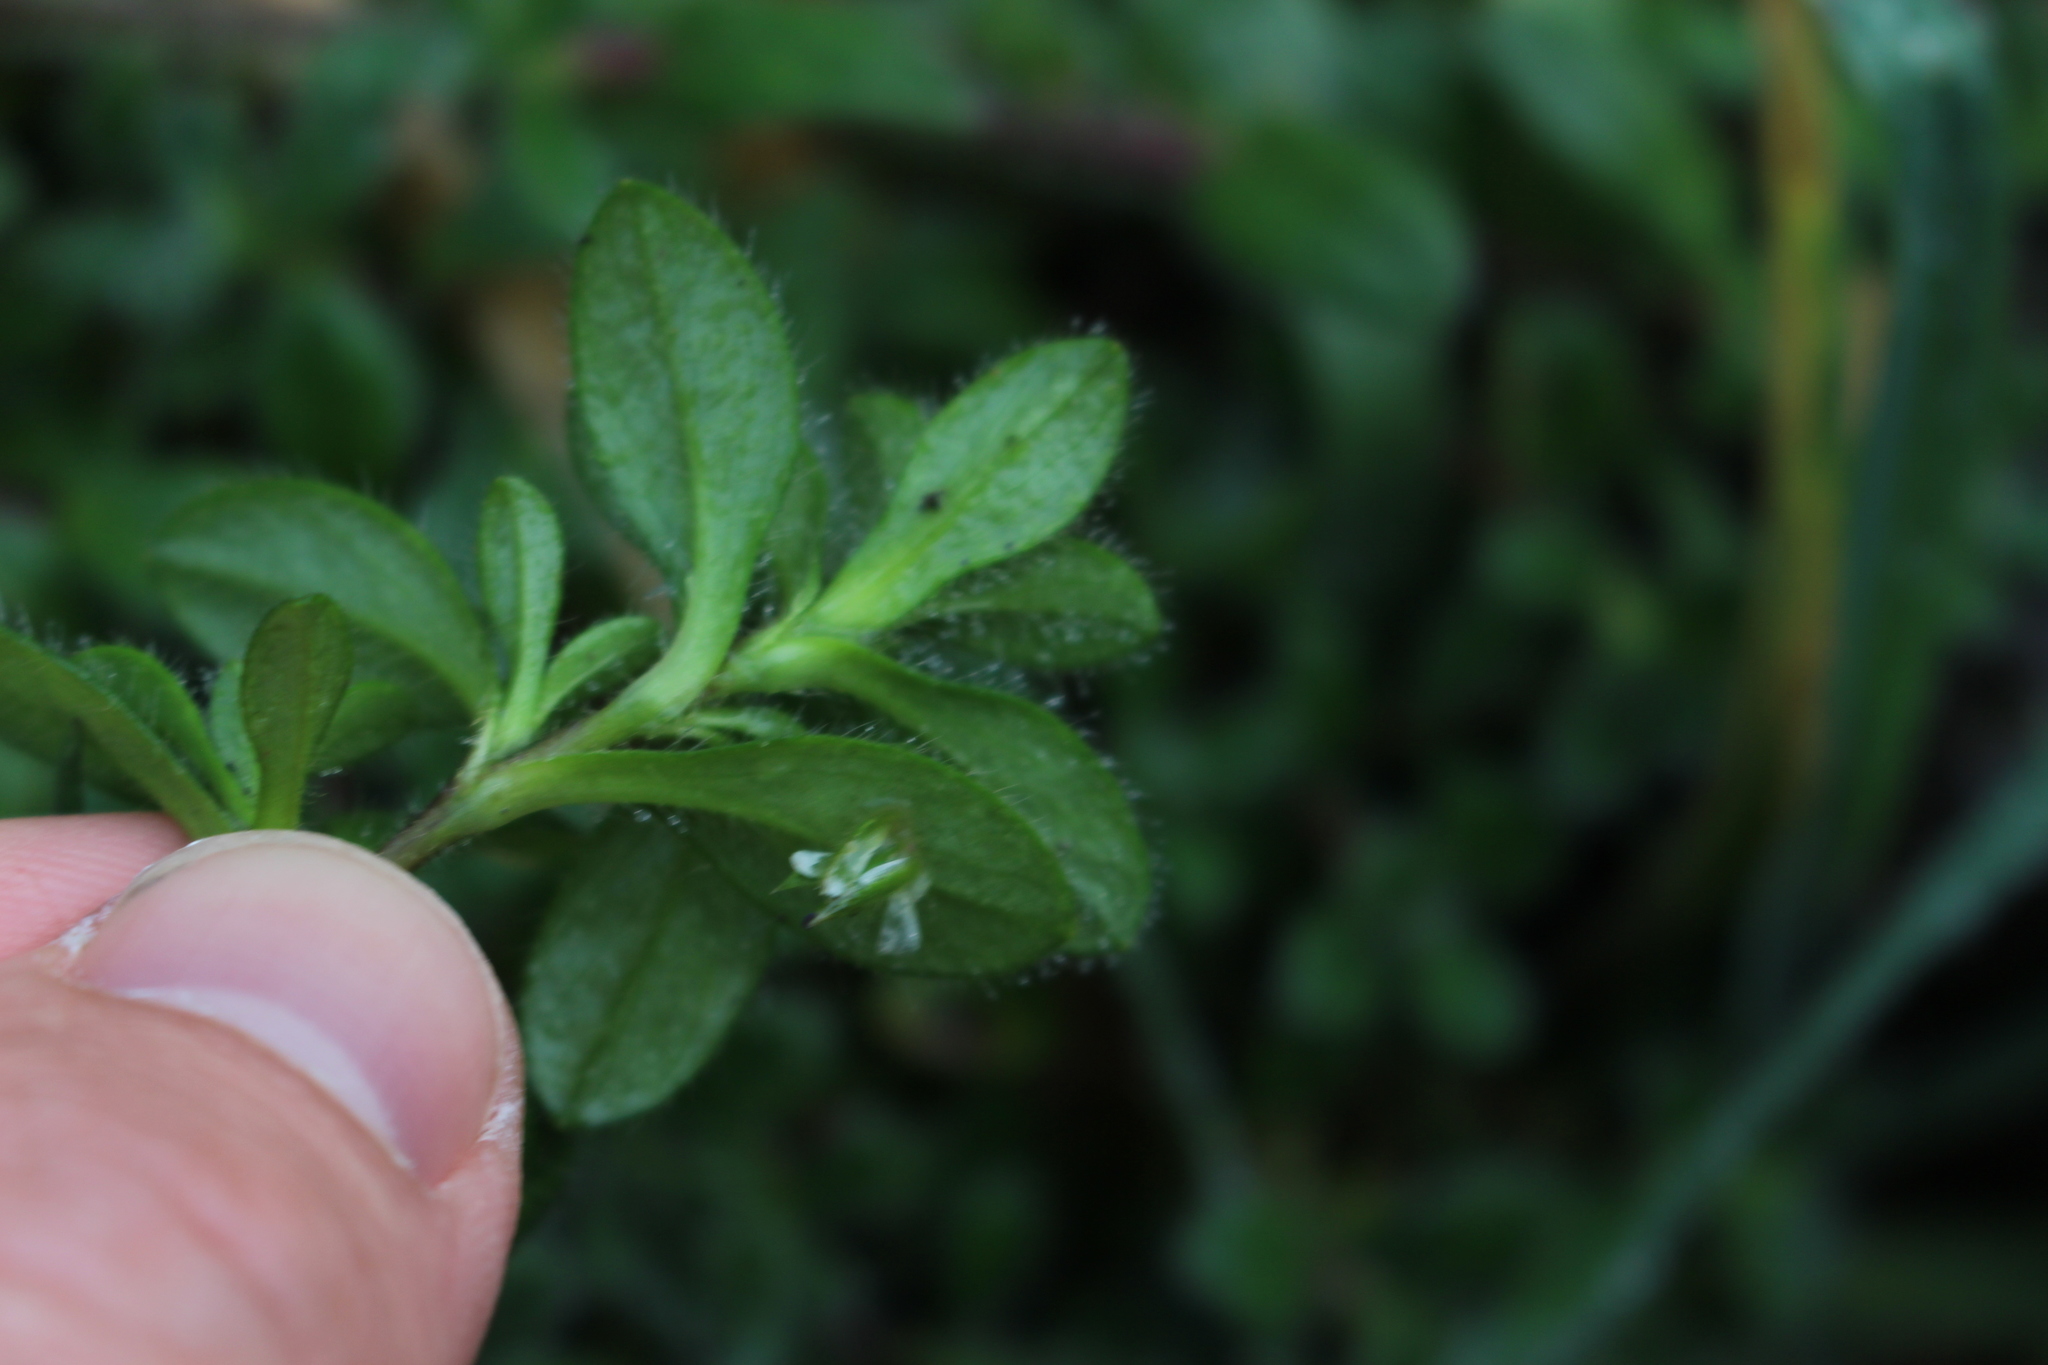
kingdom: Plantae
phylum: Tracheophyta
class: Magnoliopsida
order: Caryophyllales
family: Caryophyllaceae
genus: Cerastium
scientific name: Cerastium fontanum
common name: Common mouse-ear
